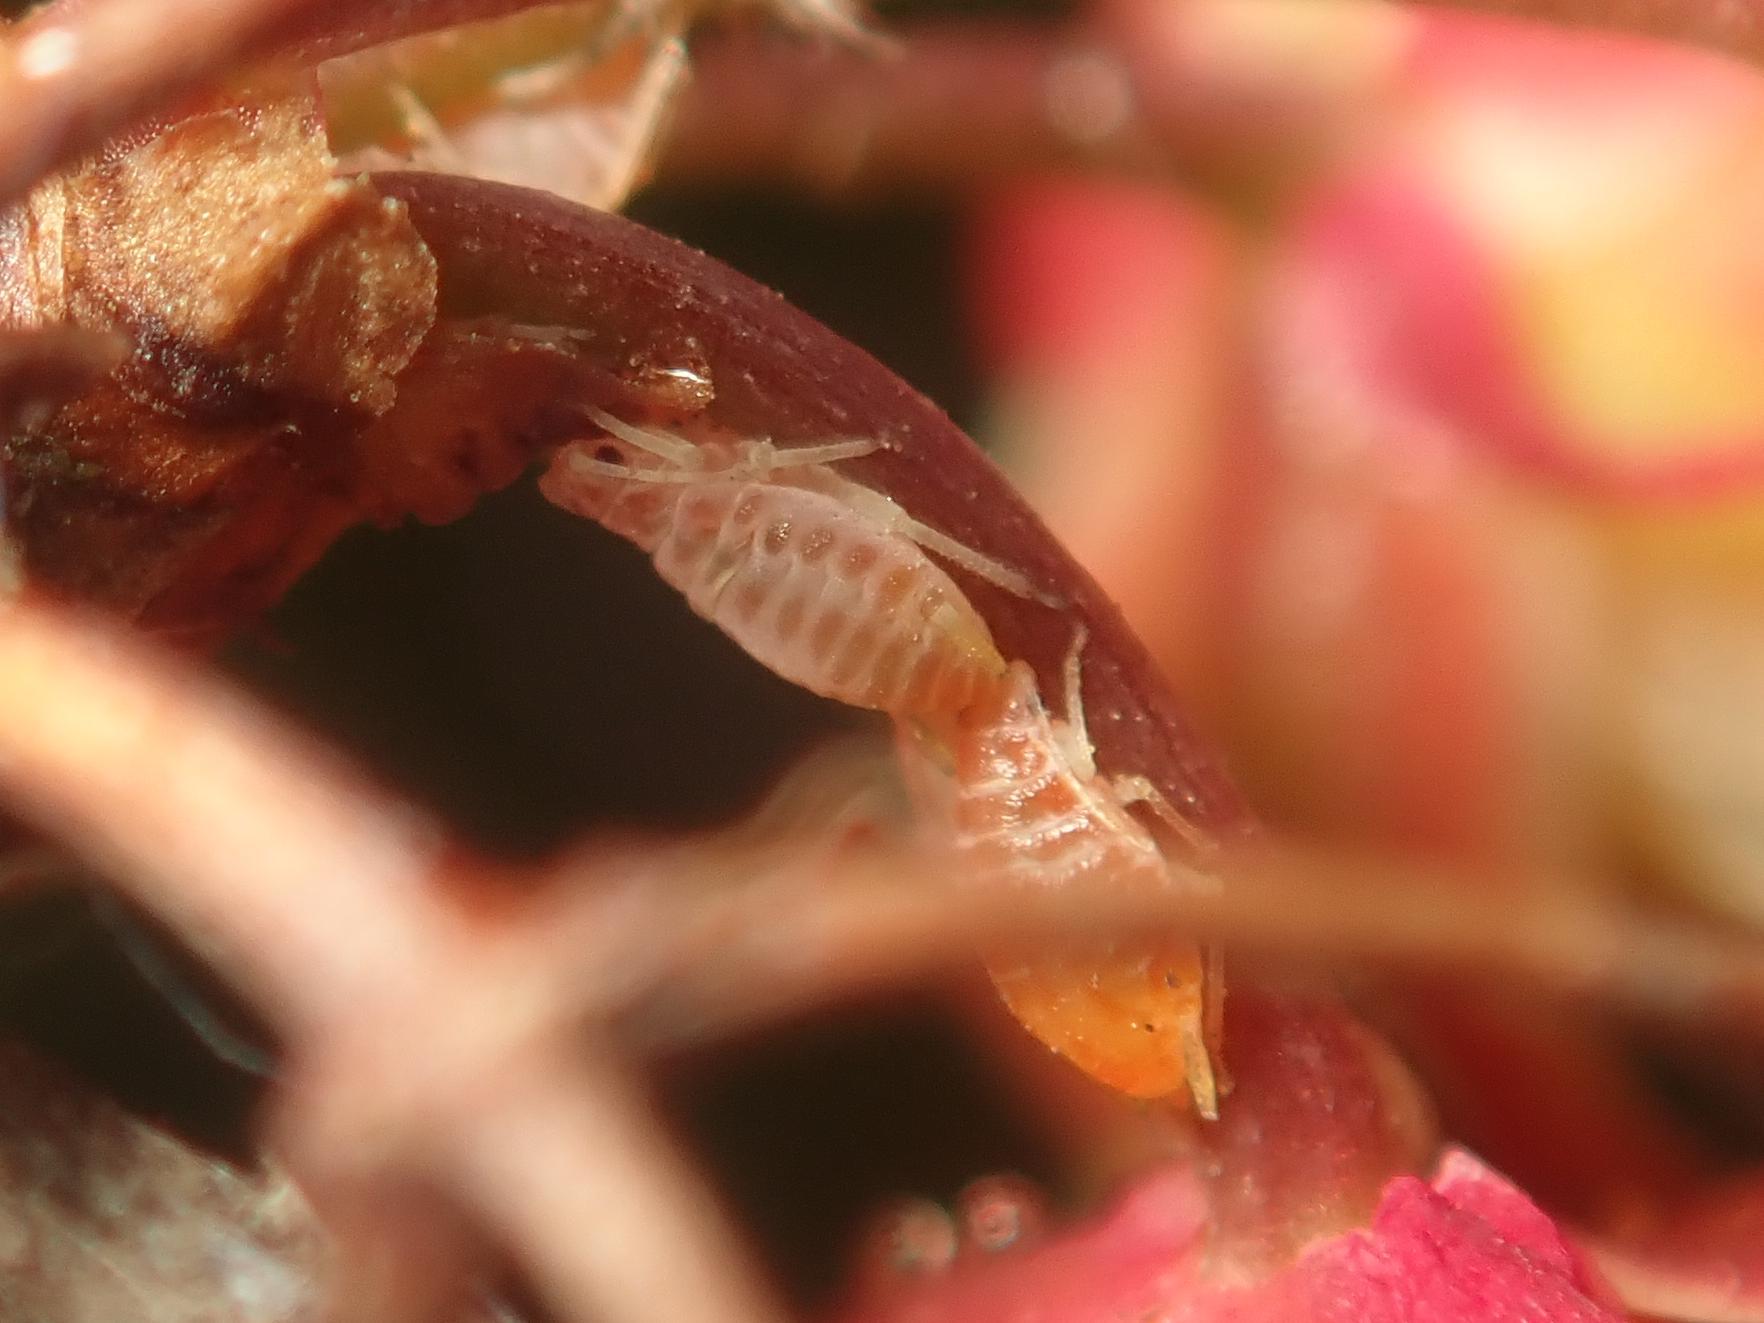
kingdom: Animalia
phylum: Arthropoda
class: Insecta
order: Hemiptera
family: Aphididae
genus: Liosomaphis
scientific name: Liosomaphis berberidis
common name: Barberry aphid
